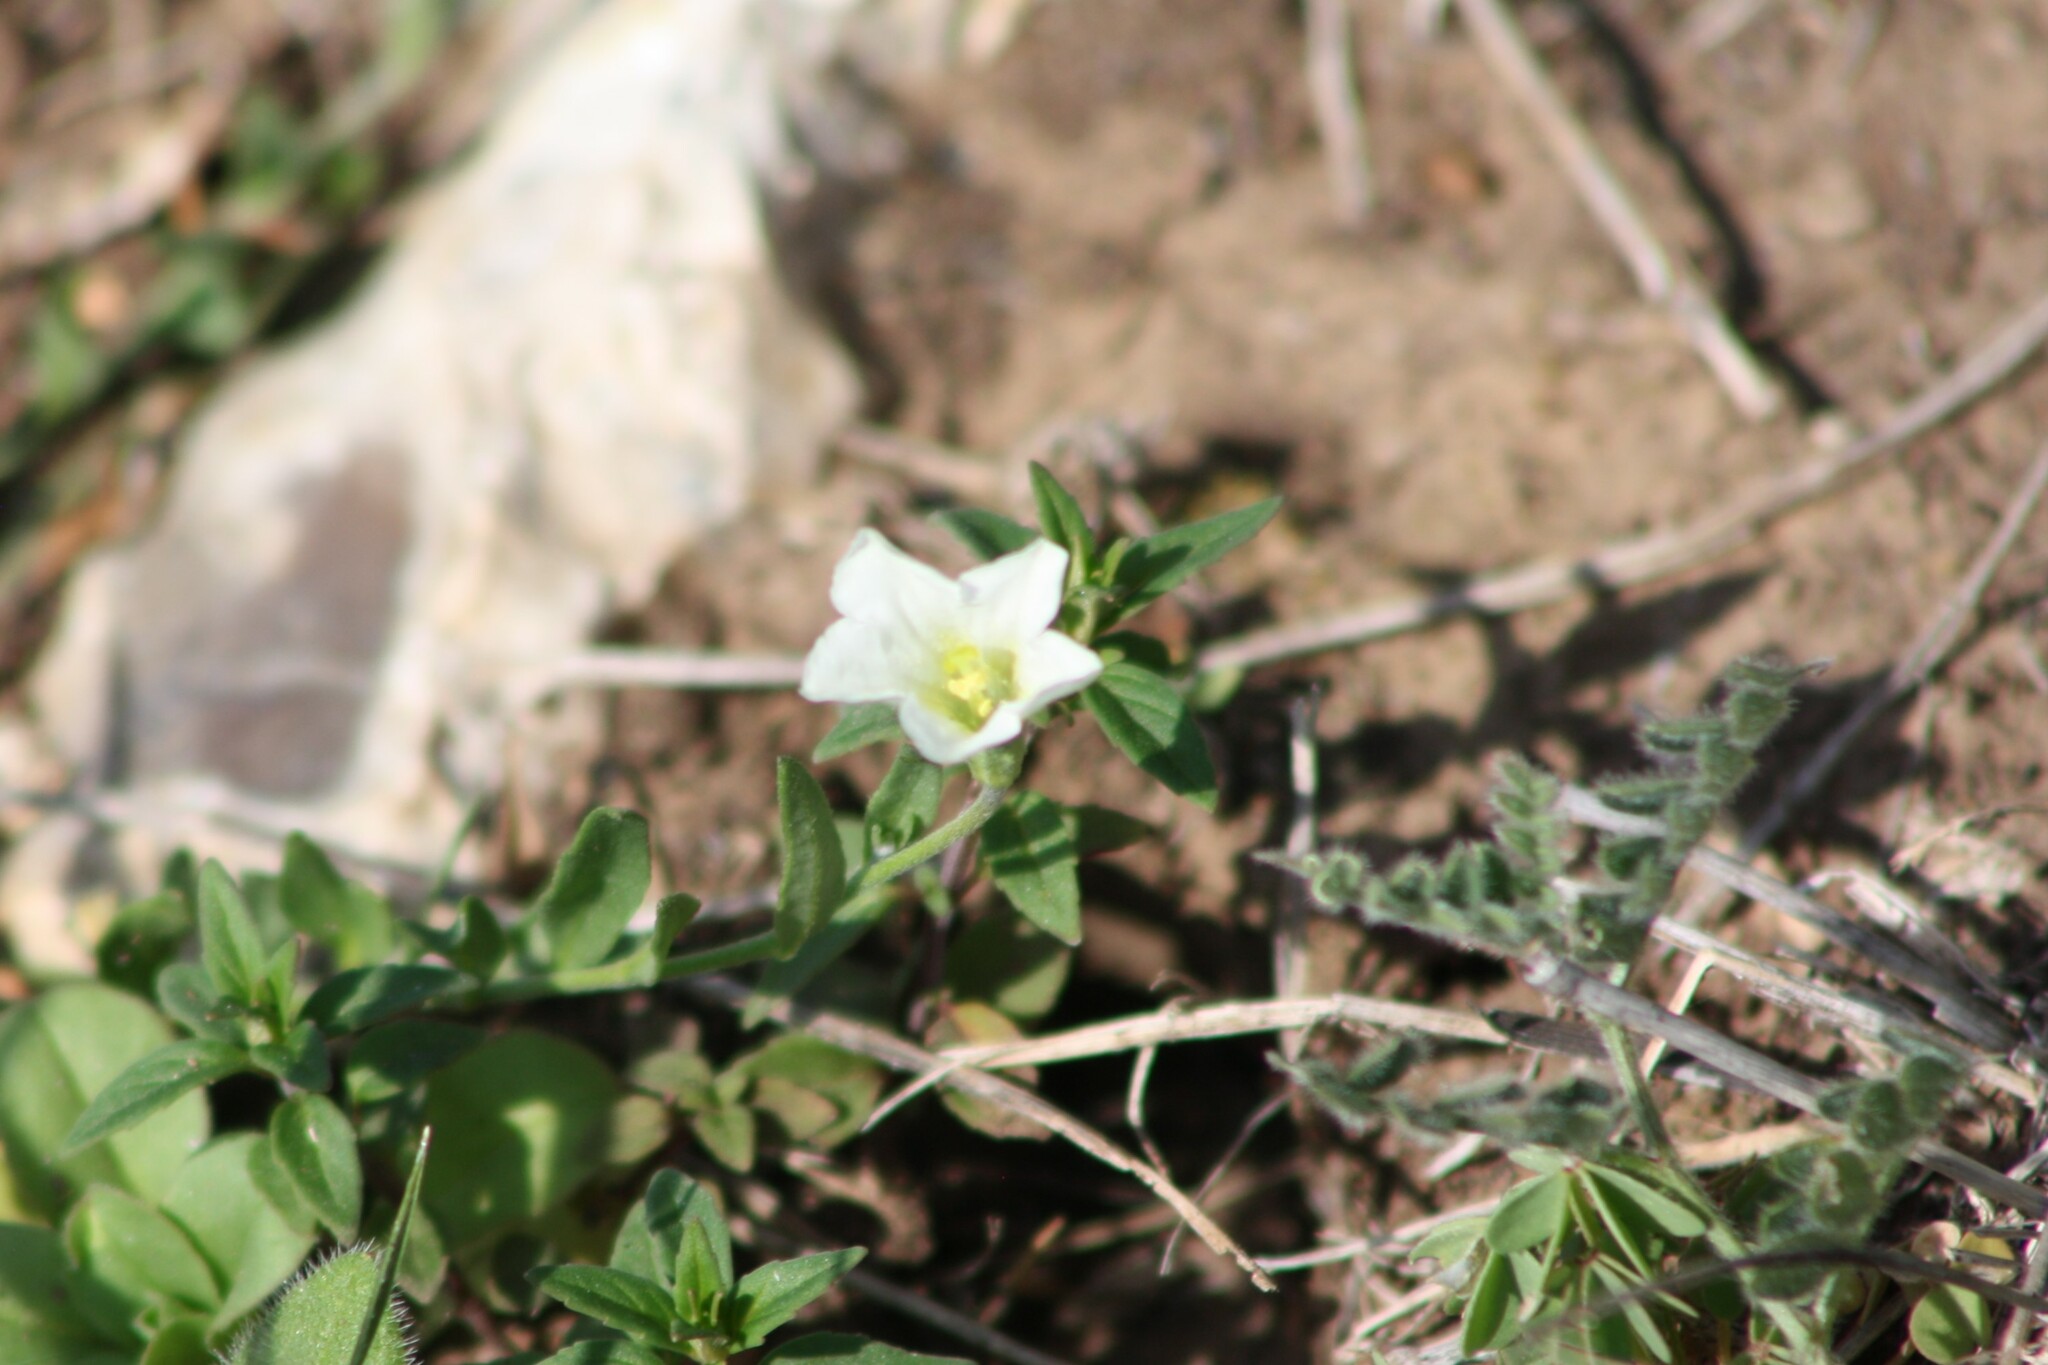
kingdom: Plantae
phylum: Tracheophyta
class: Magnoliopsida
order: Solanales
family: Solanaceae
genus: Salpiglossis
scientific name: Salpiglossis erecta
